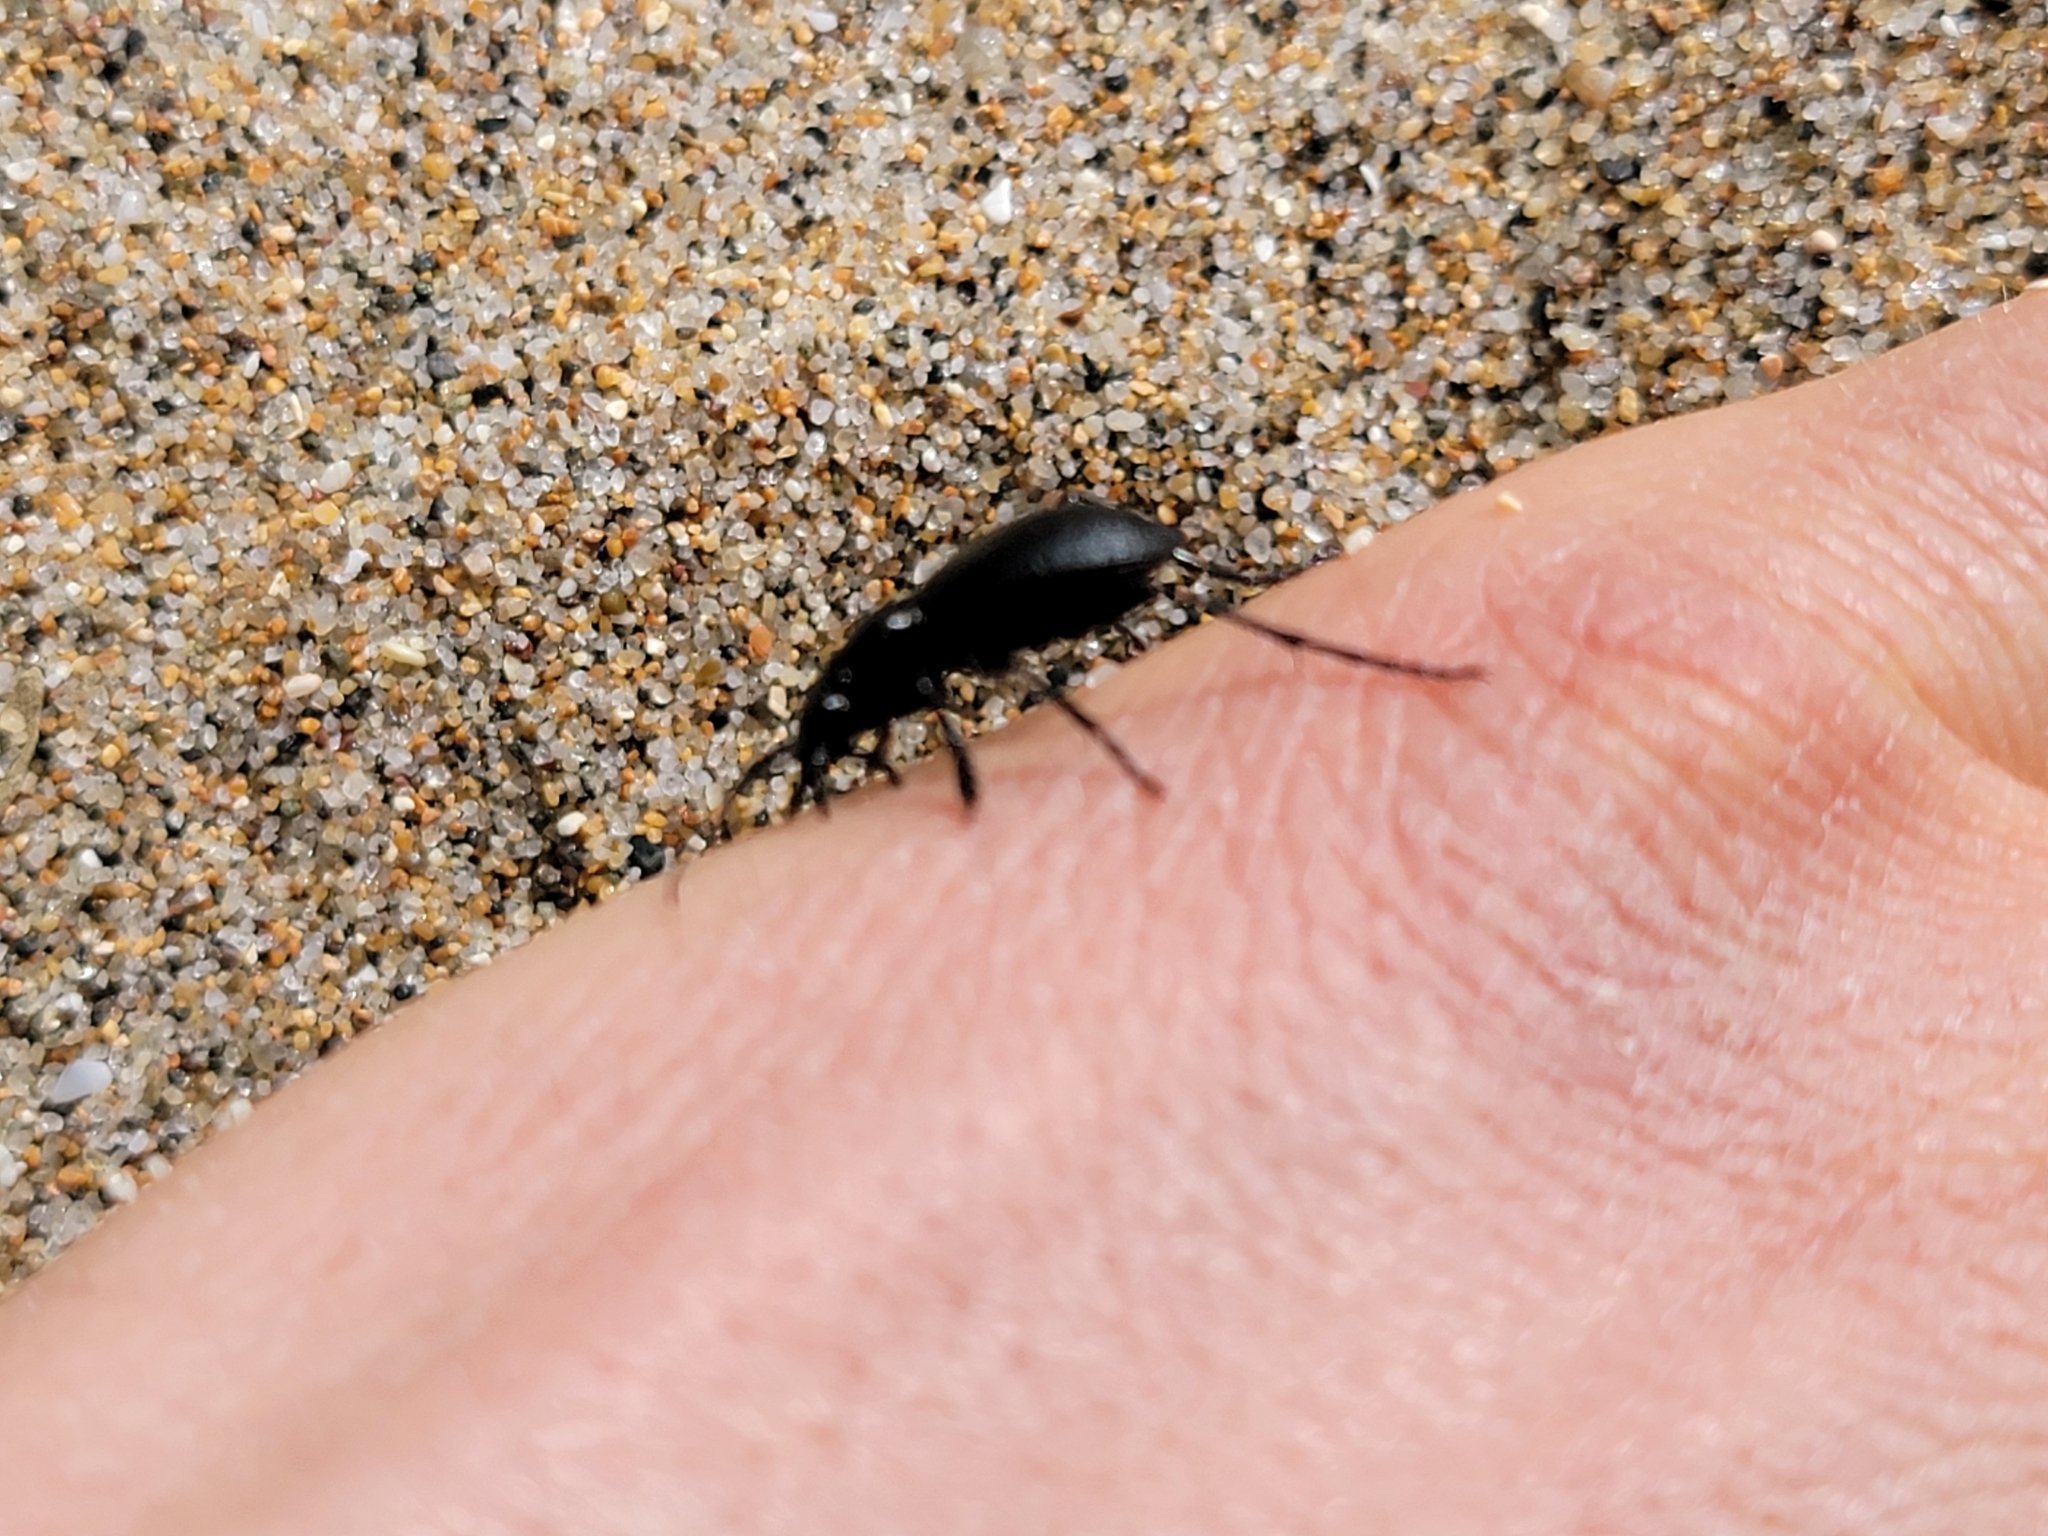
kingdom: Animalia
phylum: Arthropoda
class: Insecta
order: Coleoptera
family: Carabidae
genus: Omus
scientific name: Omus californicus
